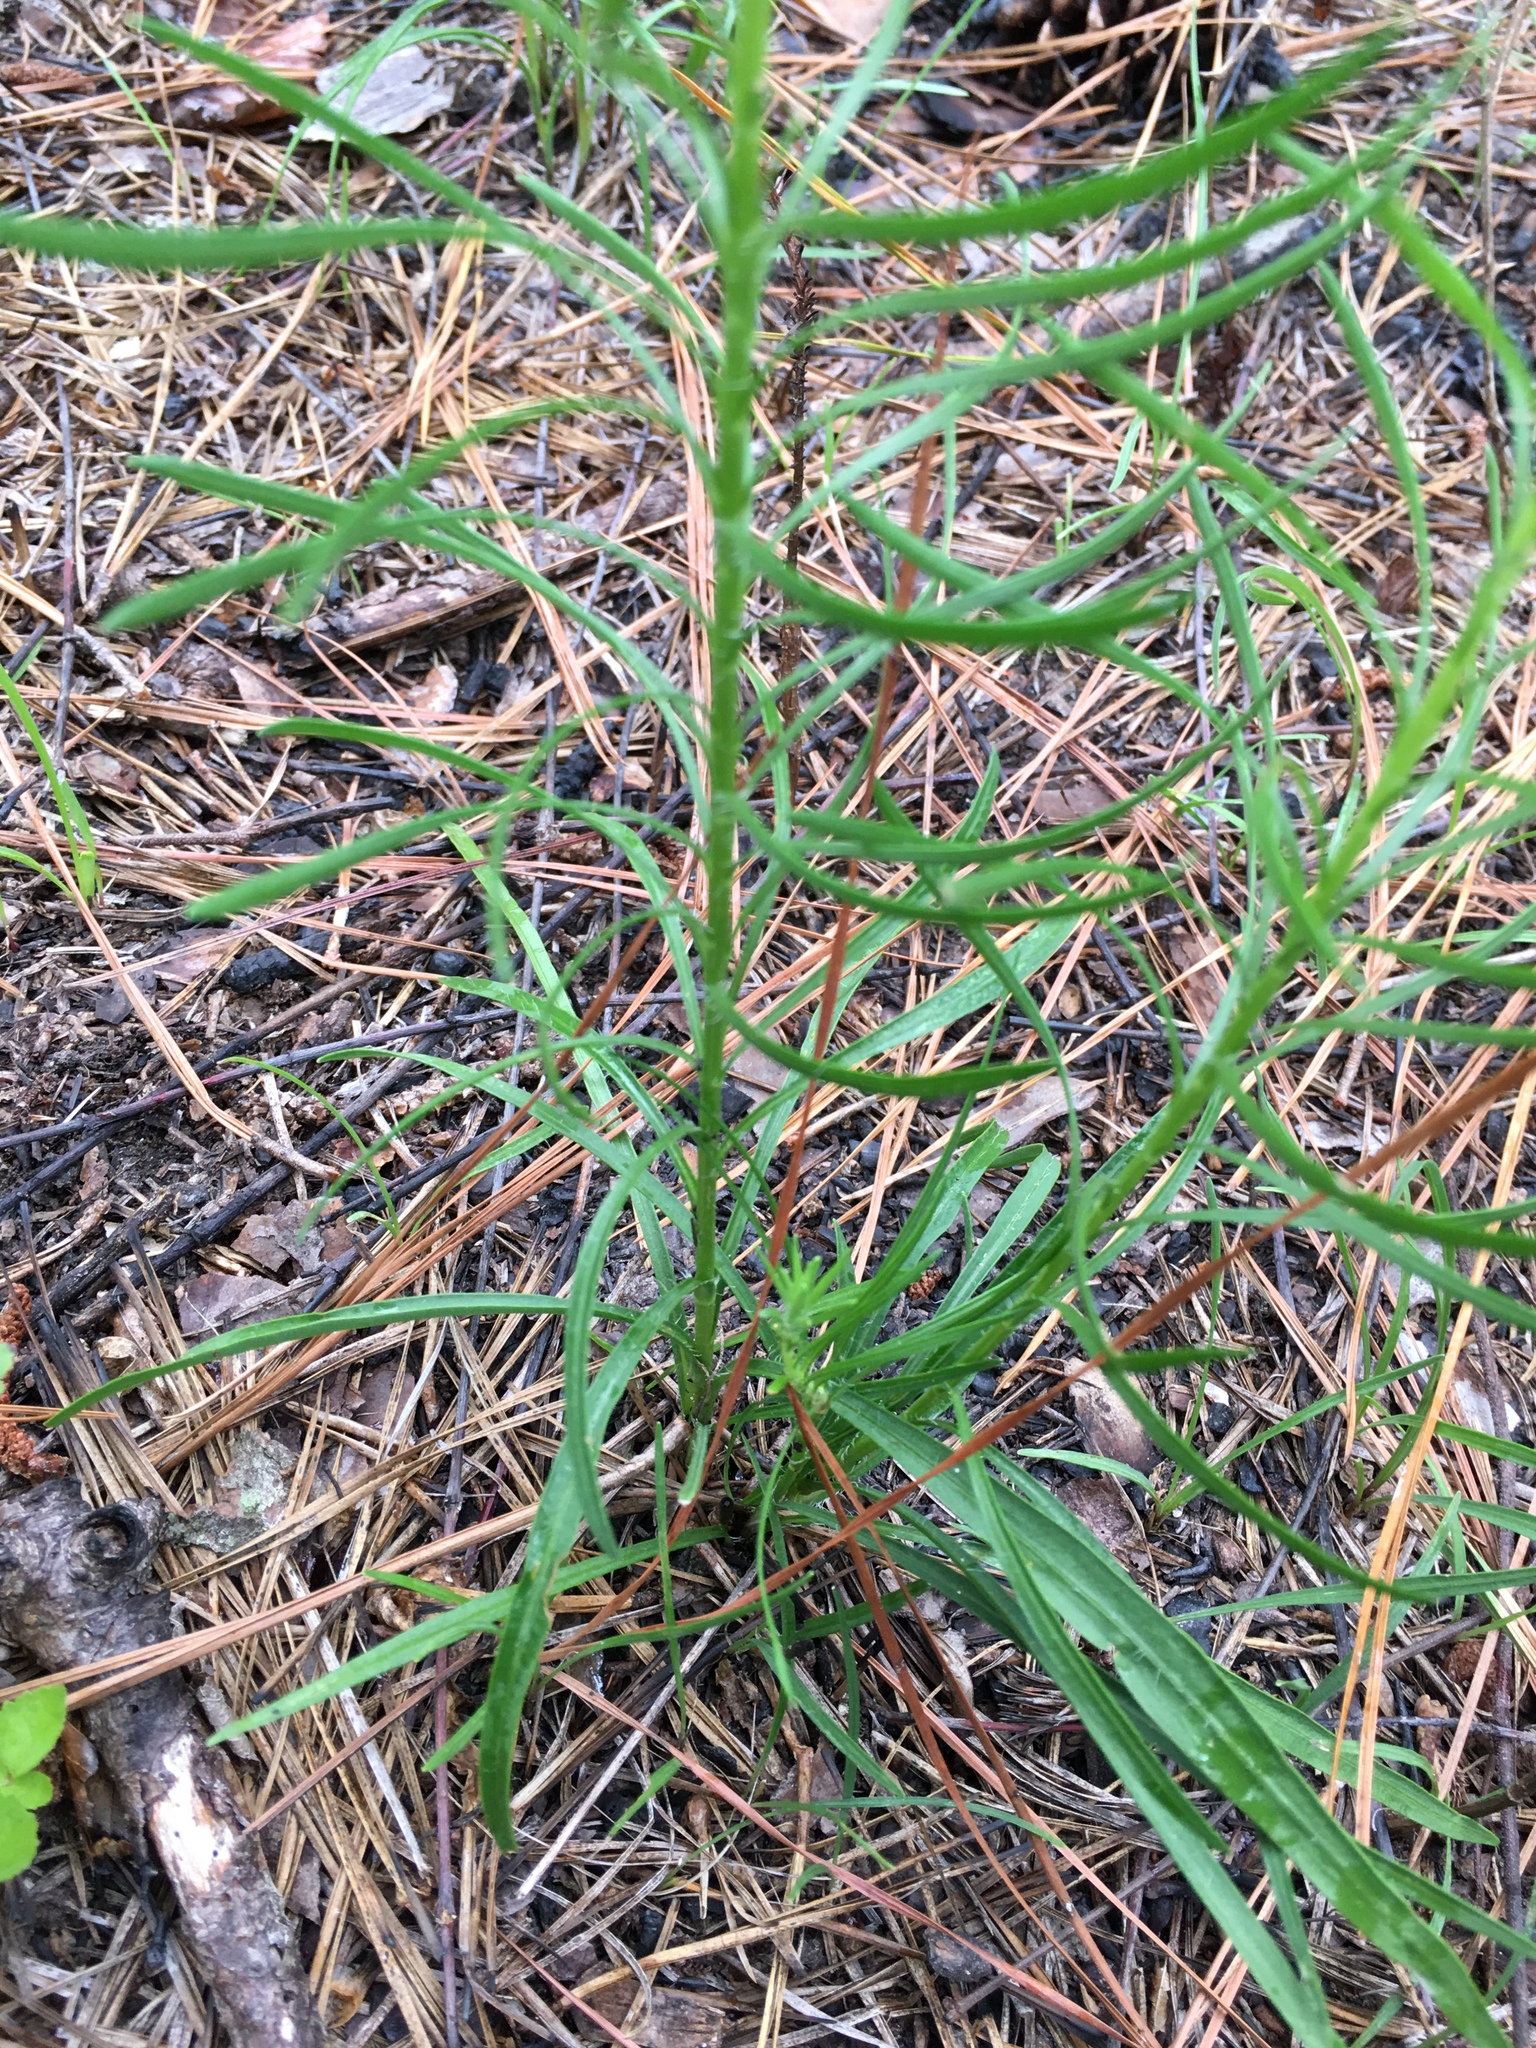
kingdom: Plantae
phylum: Tracheophyta
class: Magnoliopsida
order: Asterales
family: Asteraceae
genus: Liatris
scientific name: Liatris pilosa
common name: Grass-leaf gayfeather
